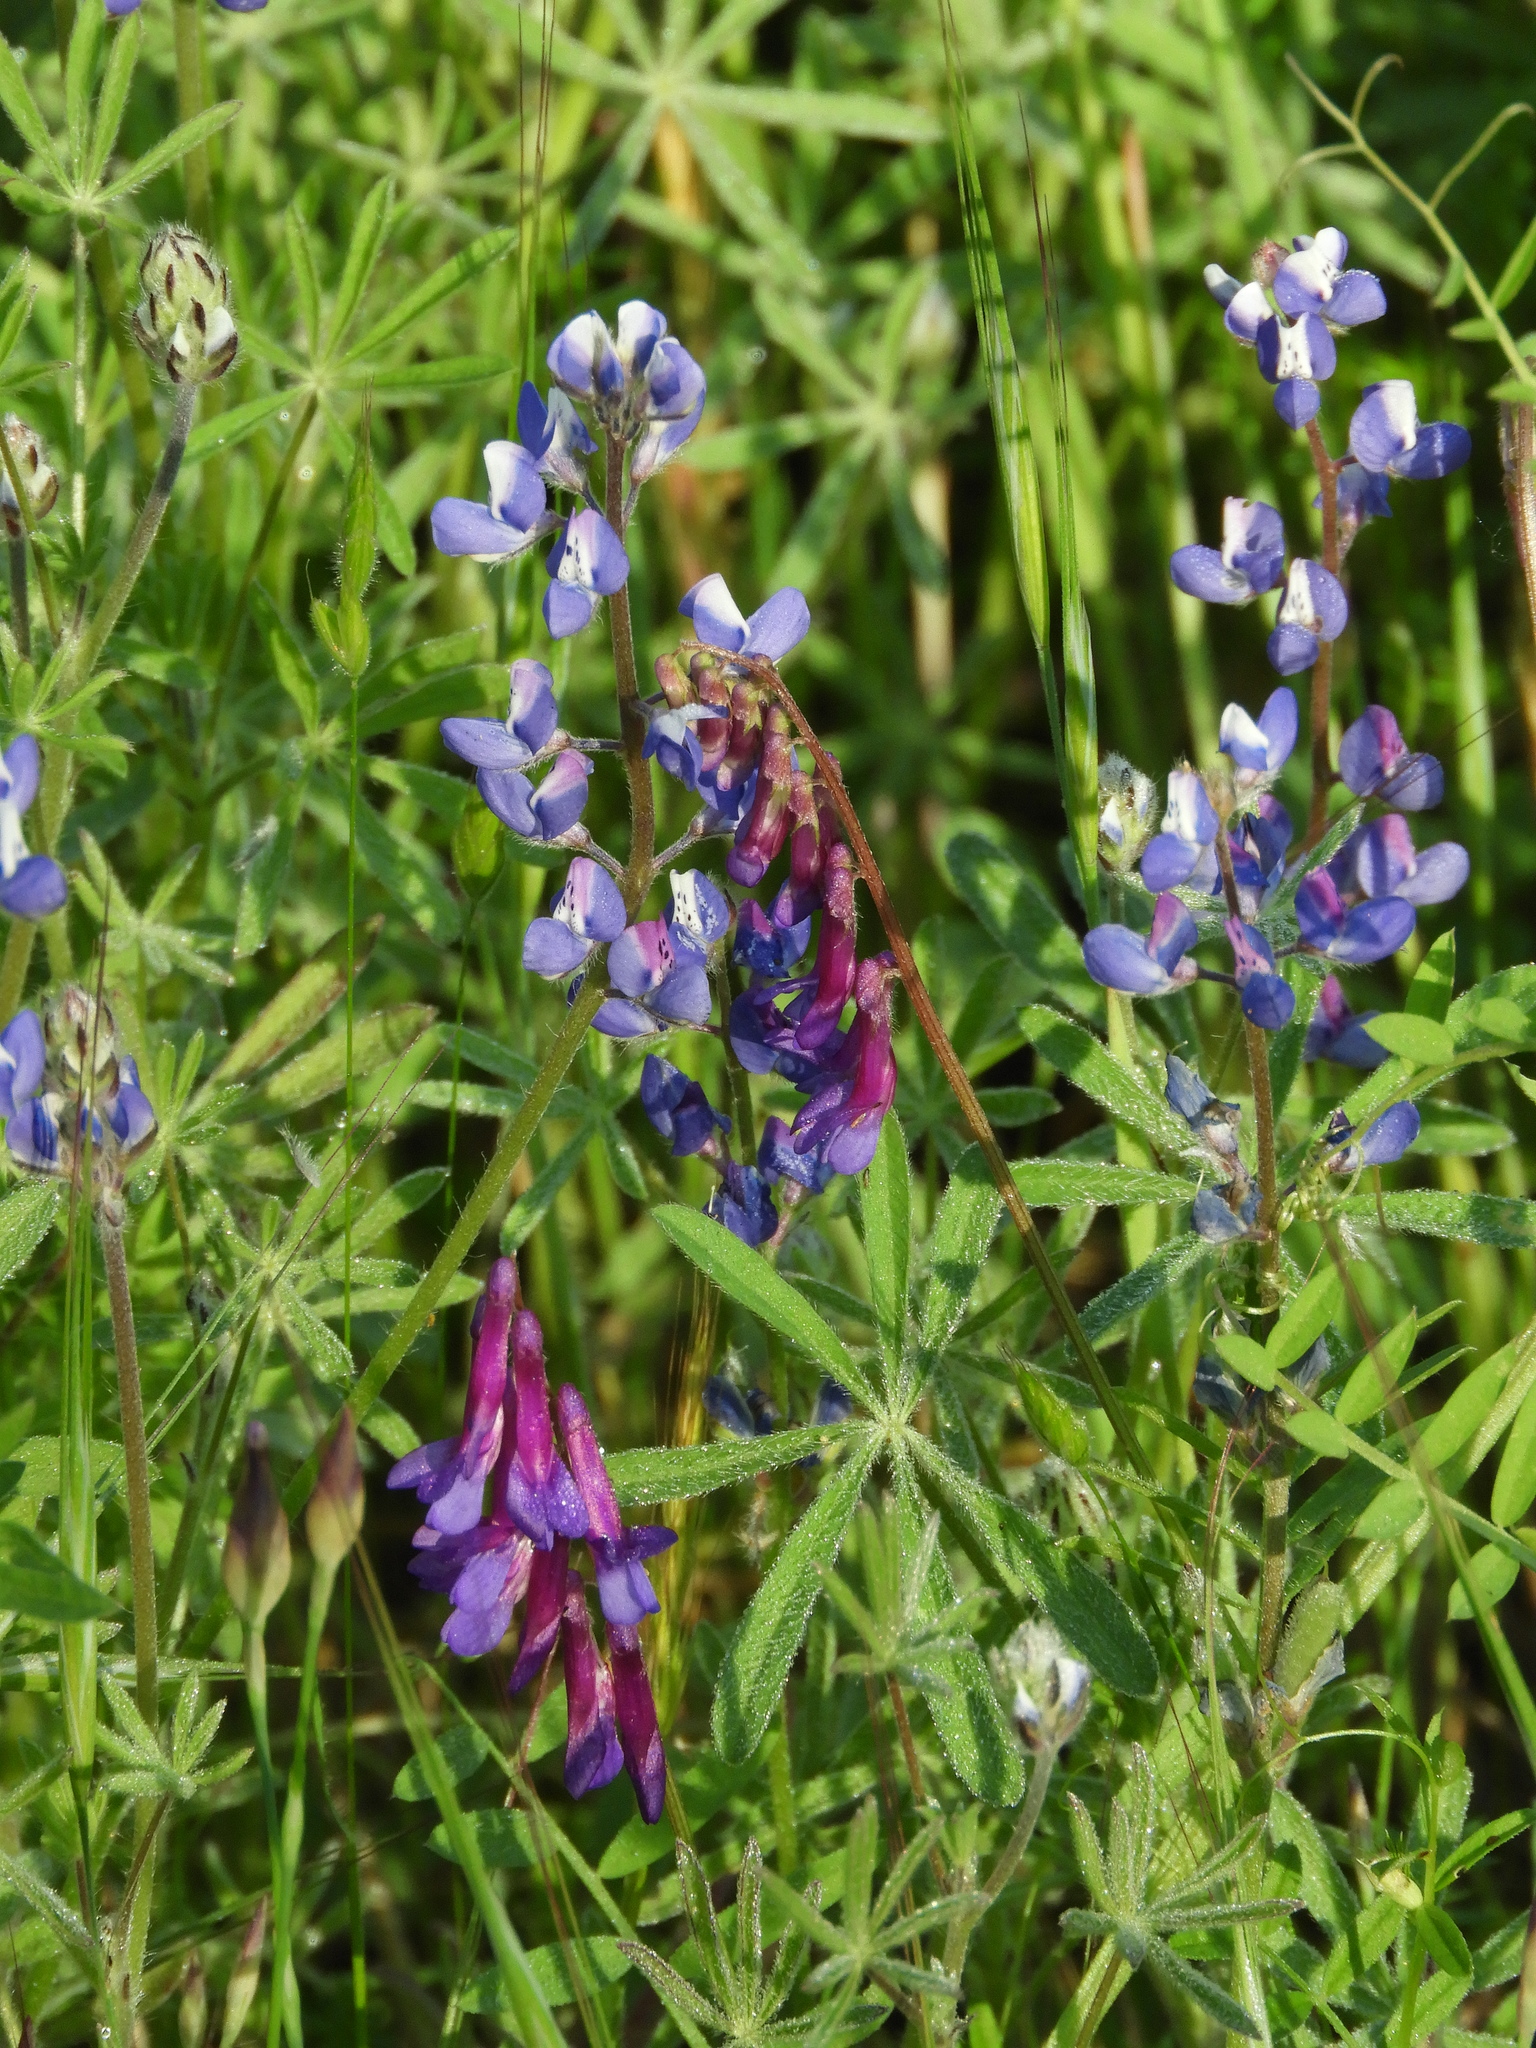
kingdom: Plantae
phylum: Tracheophyta
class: Magnoliopsida
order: Fabales
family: Fabaceae
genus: Vicia
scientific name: Vicia villosa
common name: Fodder vetch
